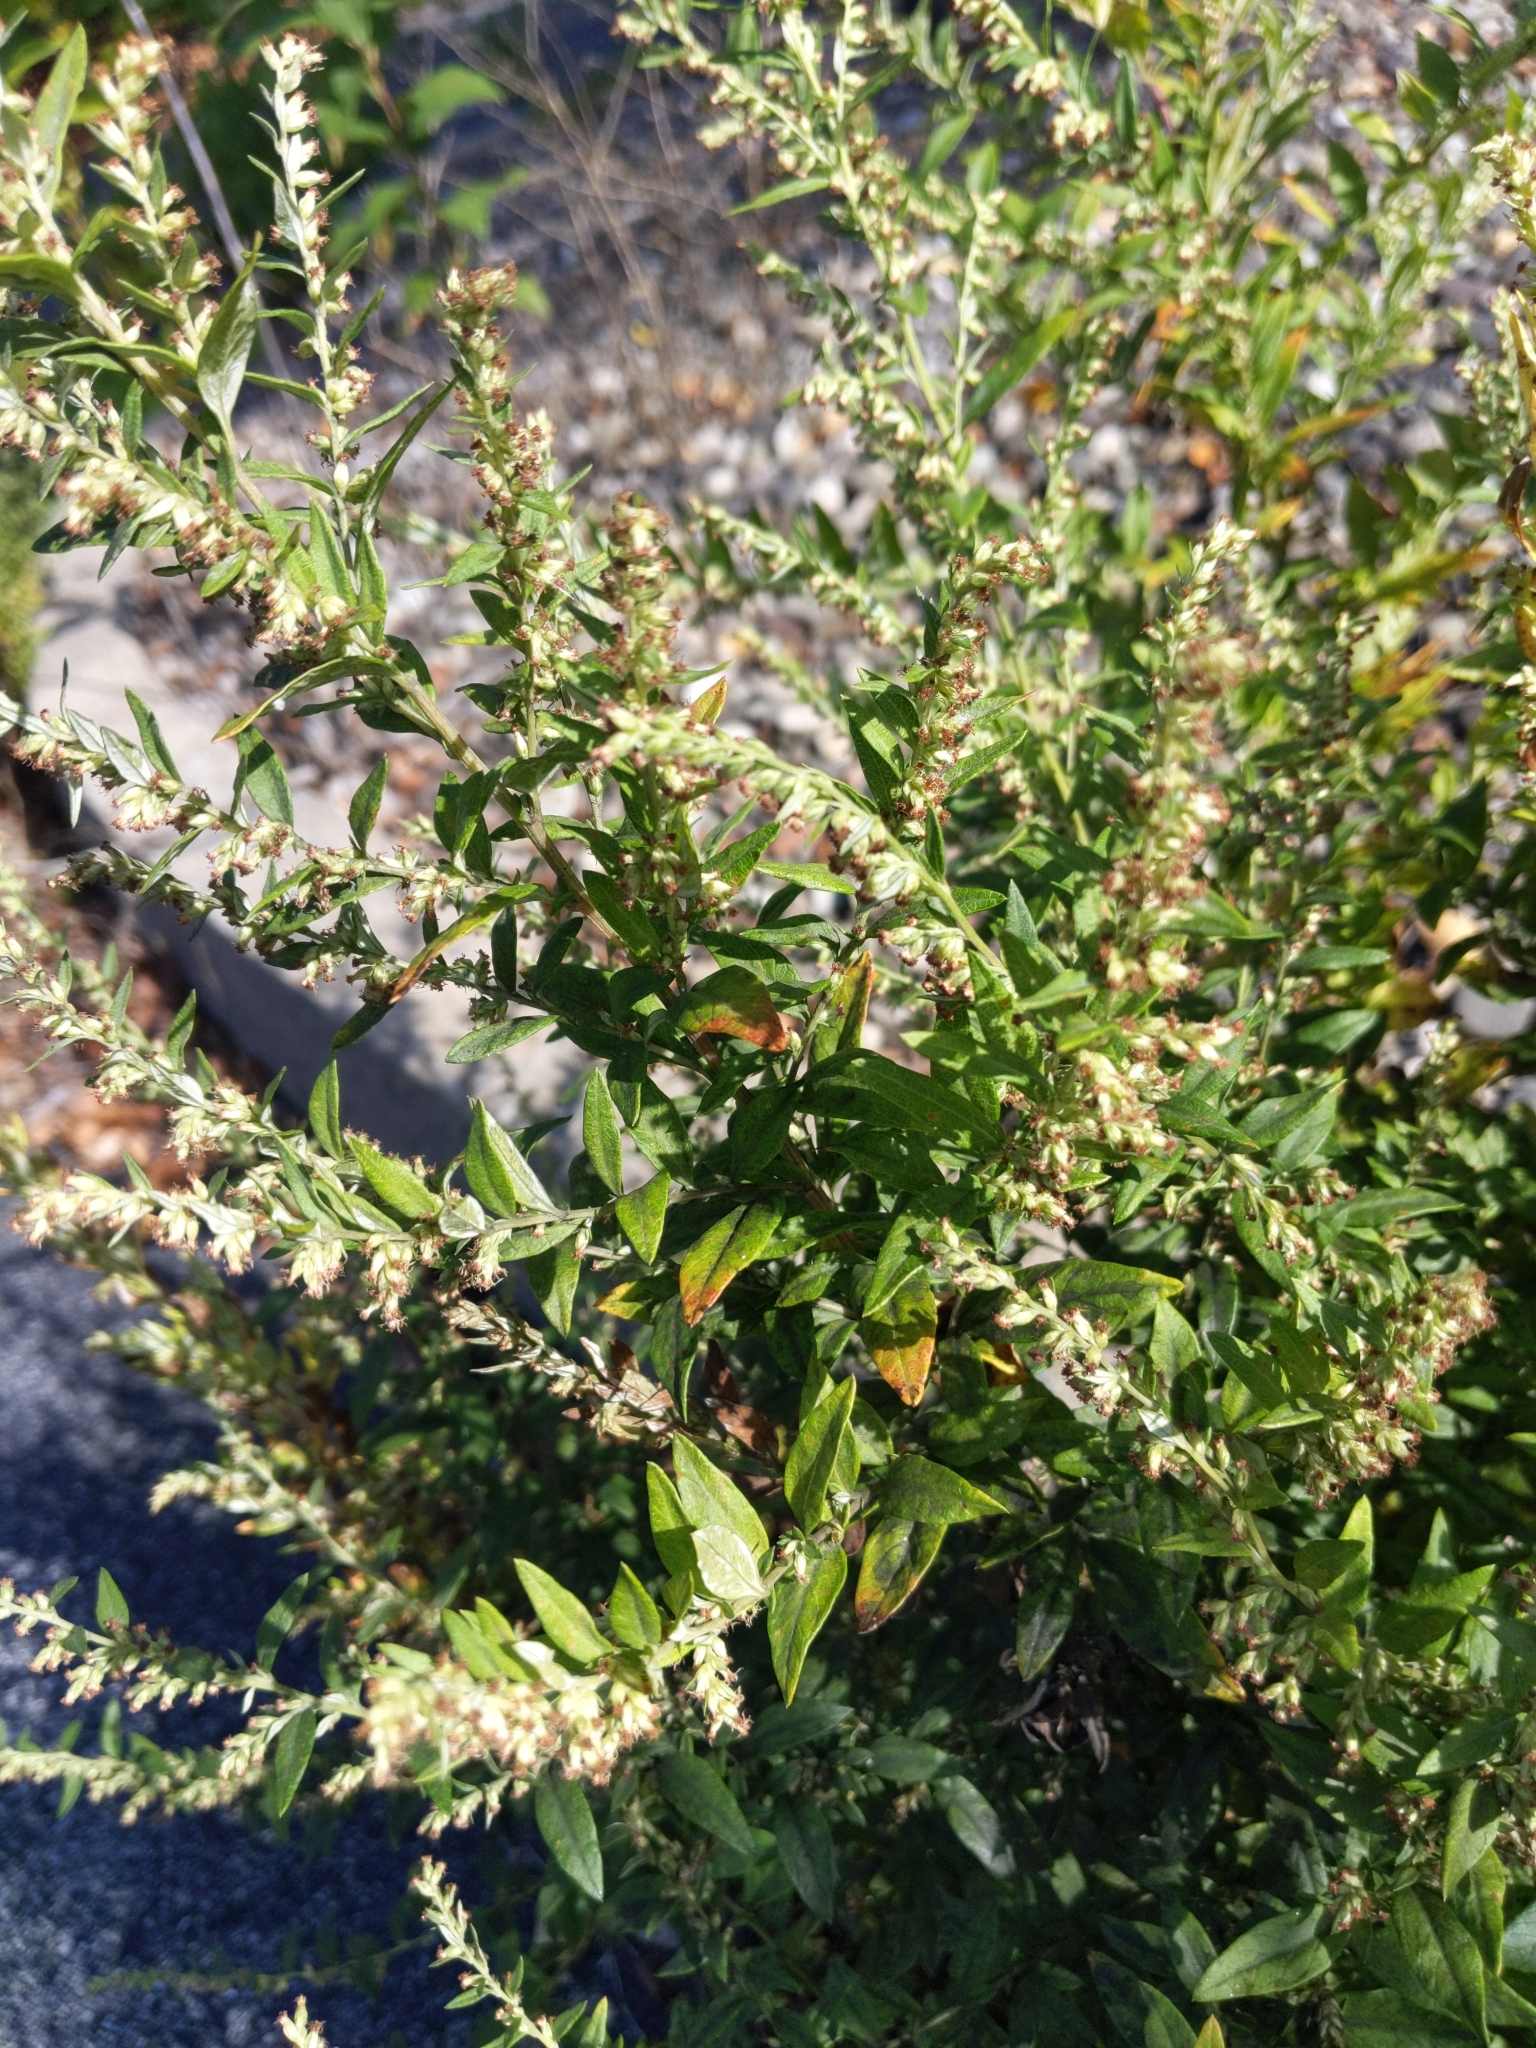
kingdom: Plantae
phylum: Tracheophyta
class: Magnoliopsida
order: Asterales
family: Asteraceae
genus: Artemisia
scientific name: Artemisia vulgaris
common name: Mugwort
